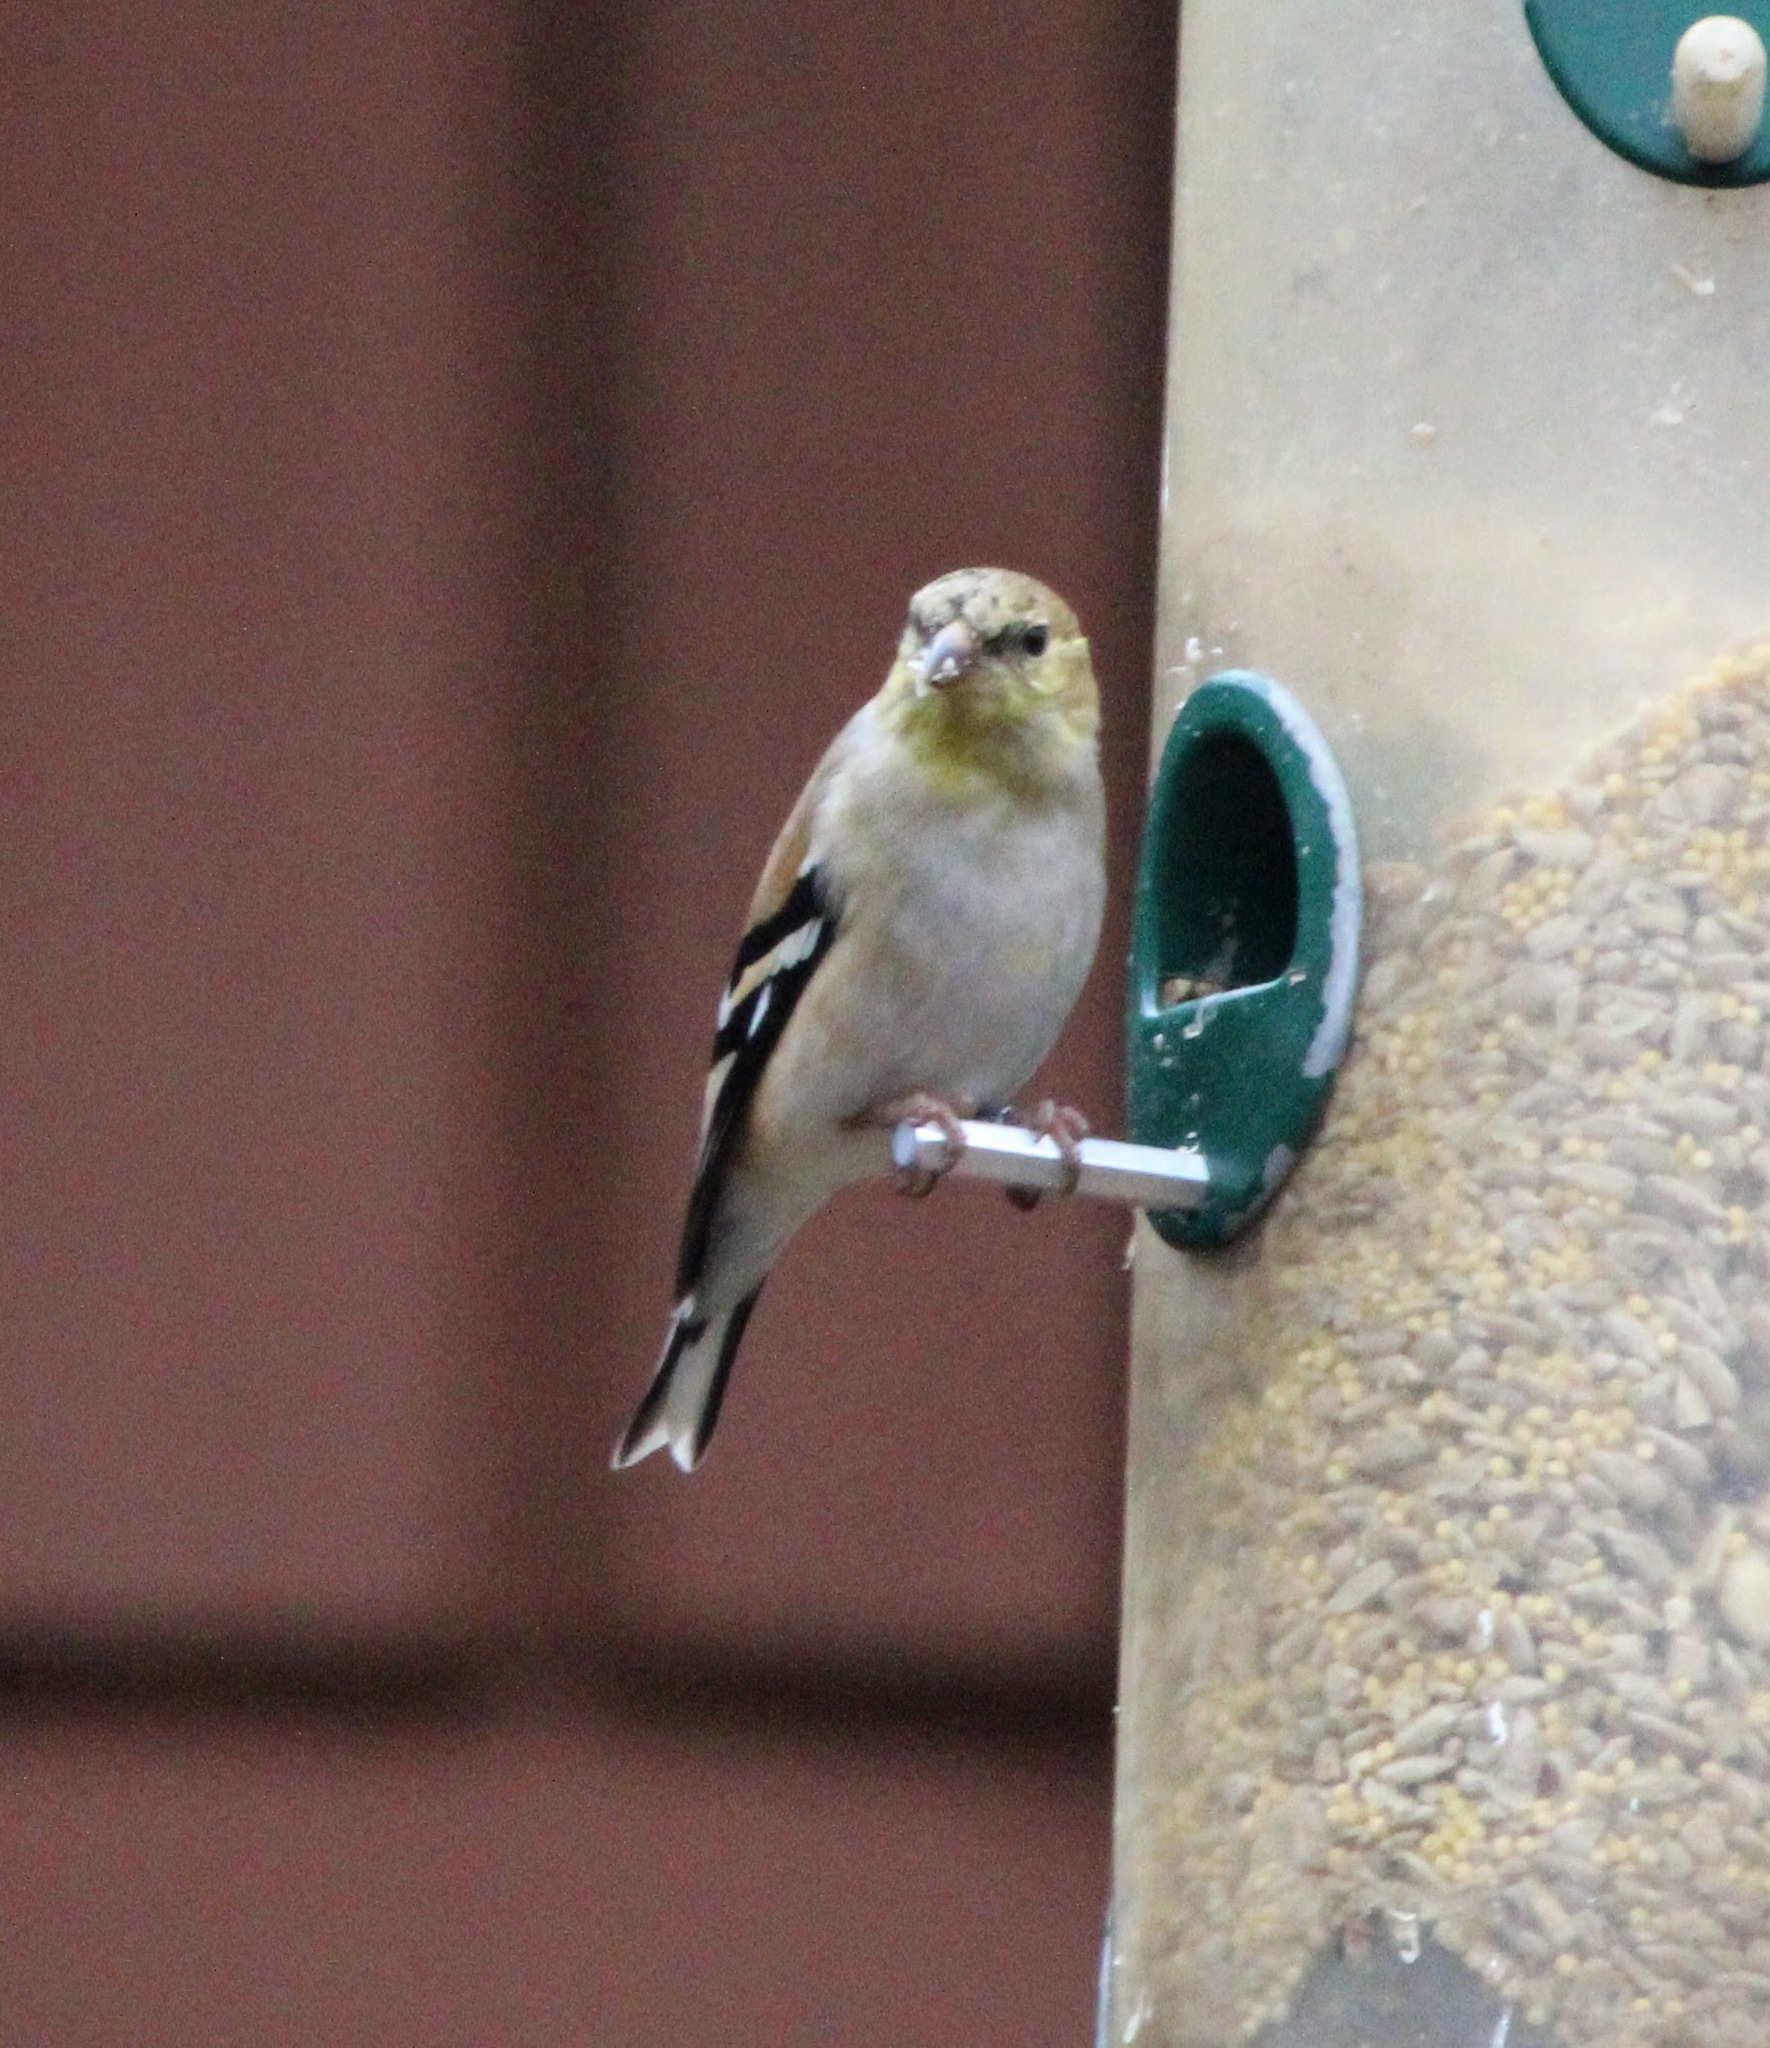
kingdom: Animalia
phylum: Chordata
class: Aves
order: Passeriformes
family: Fringillidae
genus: Spinus
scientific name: Spinus tristis
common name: American goldfinch
